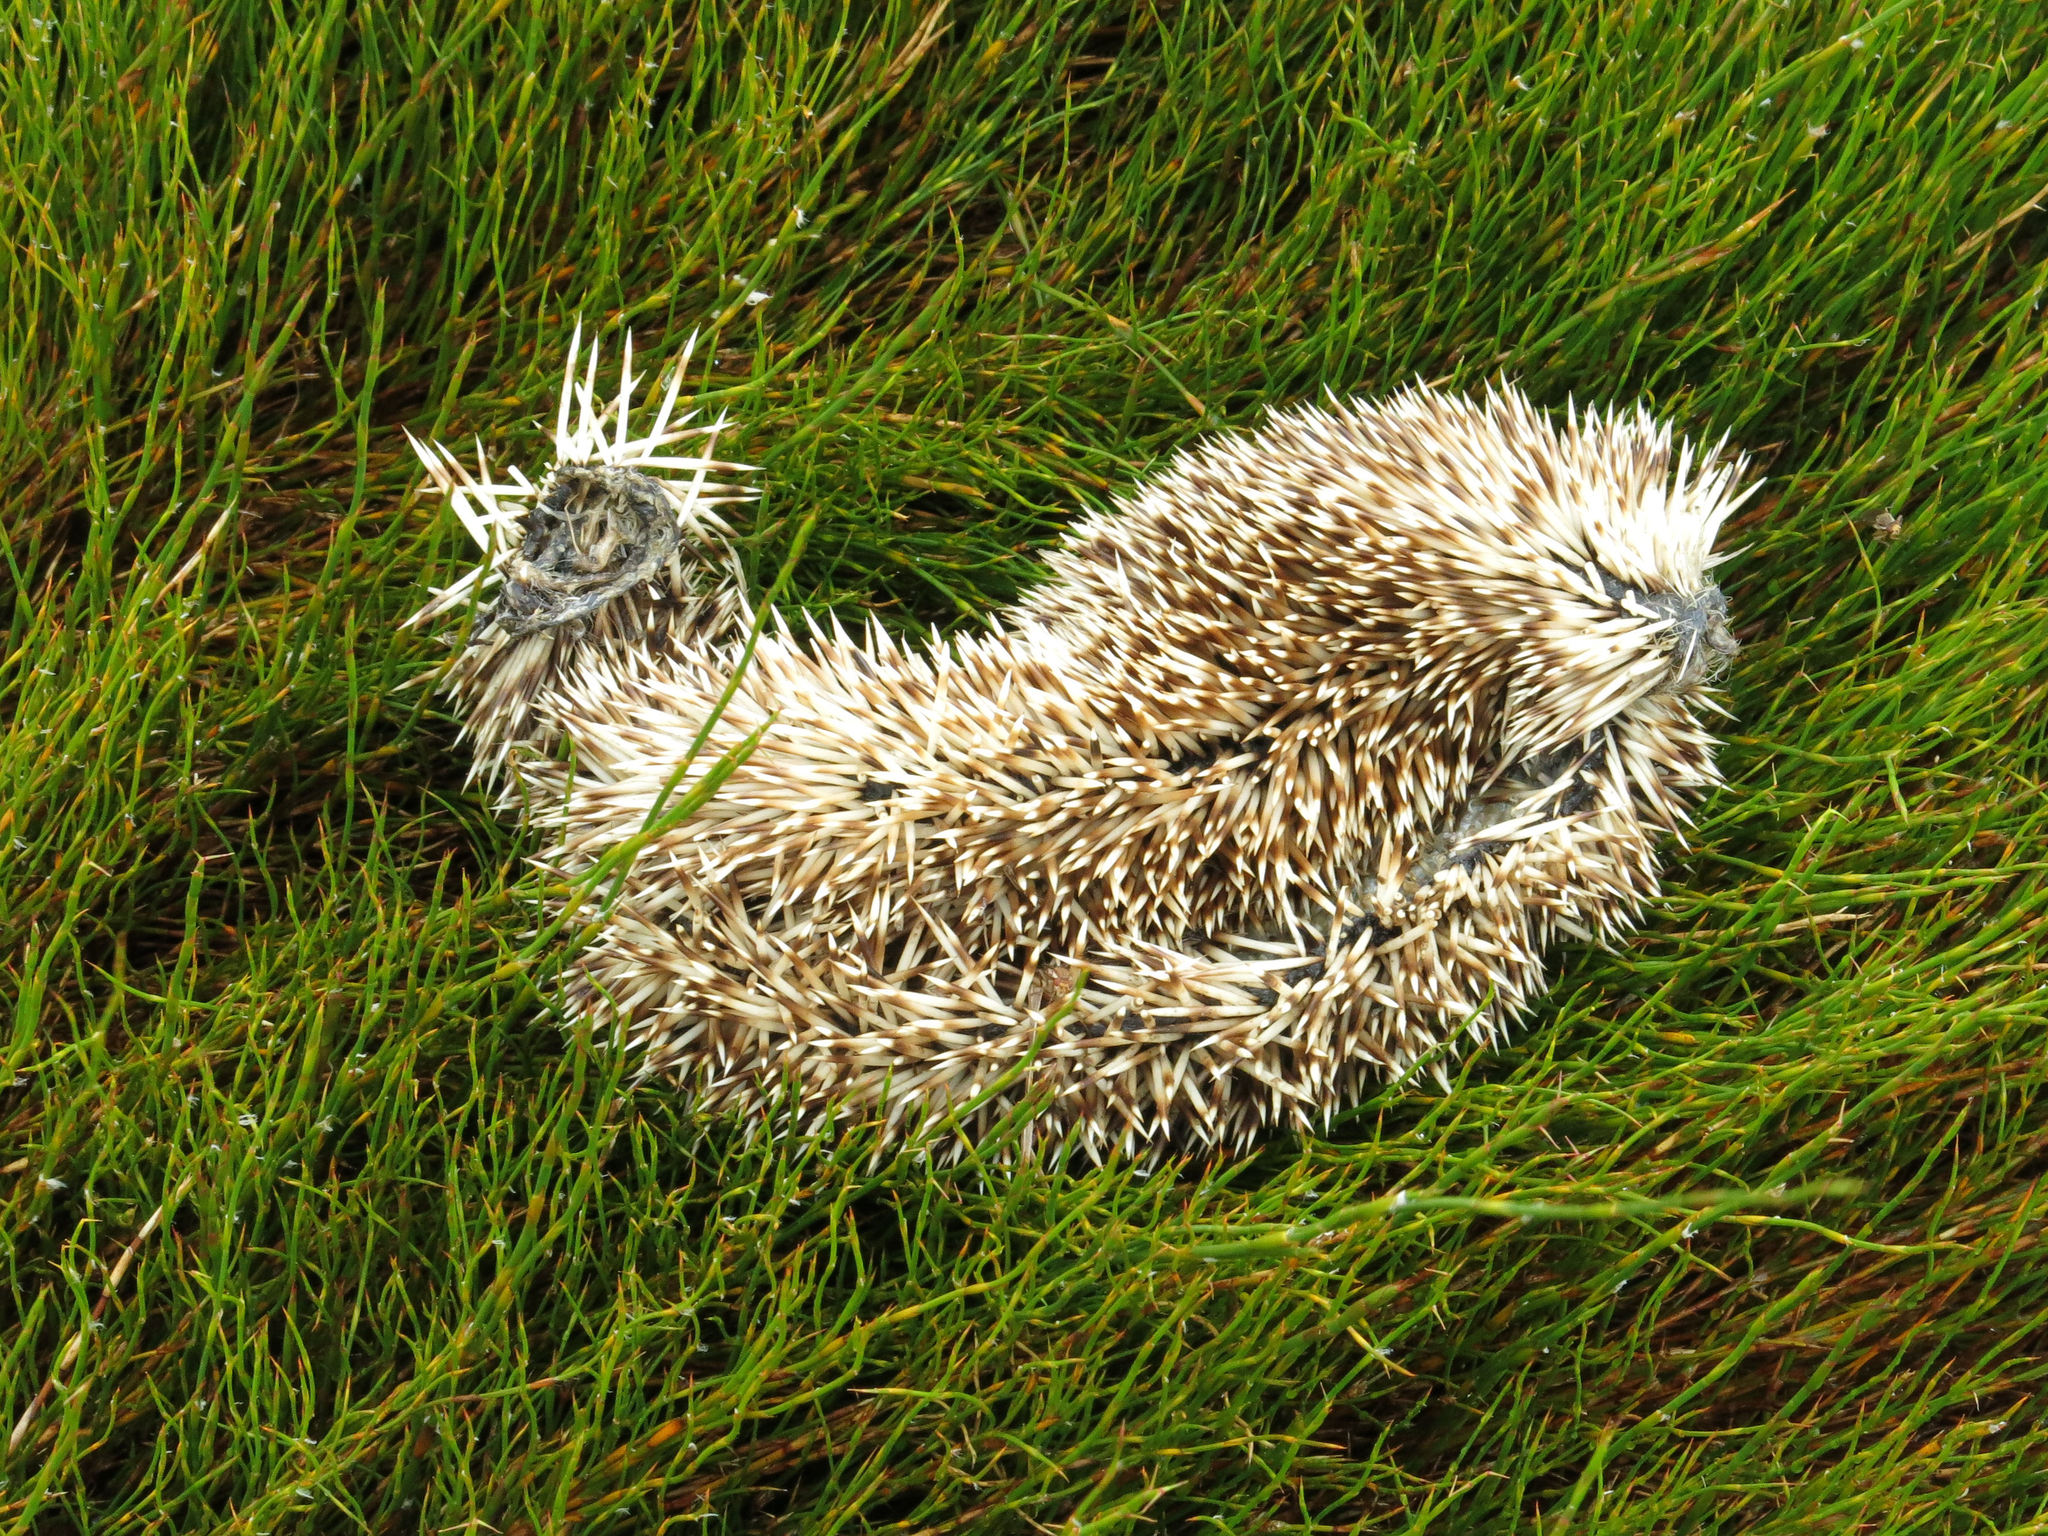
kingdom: Animalia
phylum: Chordata
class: Mammalia
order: Erinaceomorpha
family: Erinaceidae
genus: Erinaceus
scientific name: Erinaceus europaeus
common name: West european hedgehog
